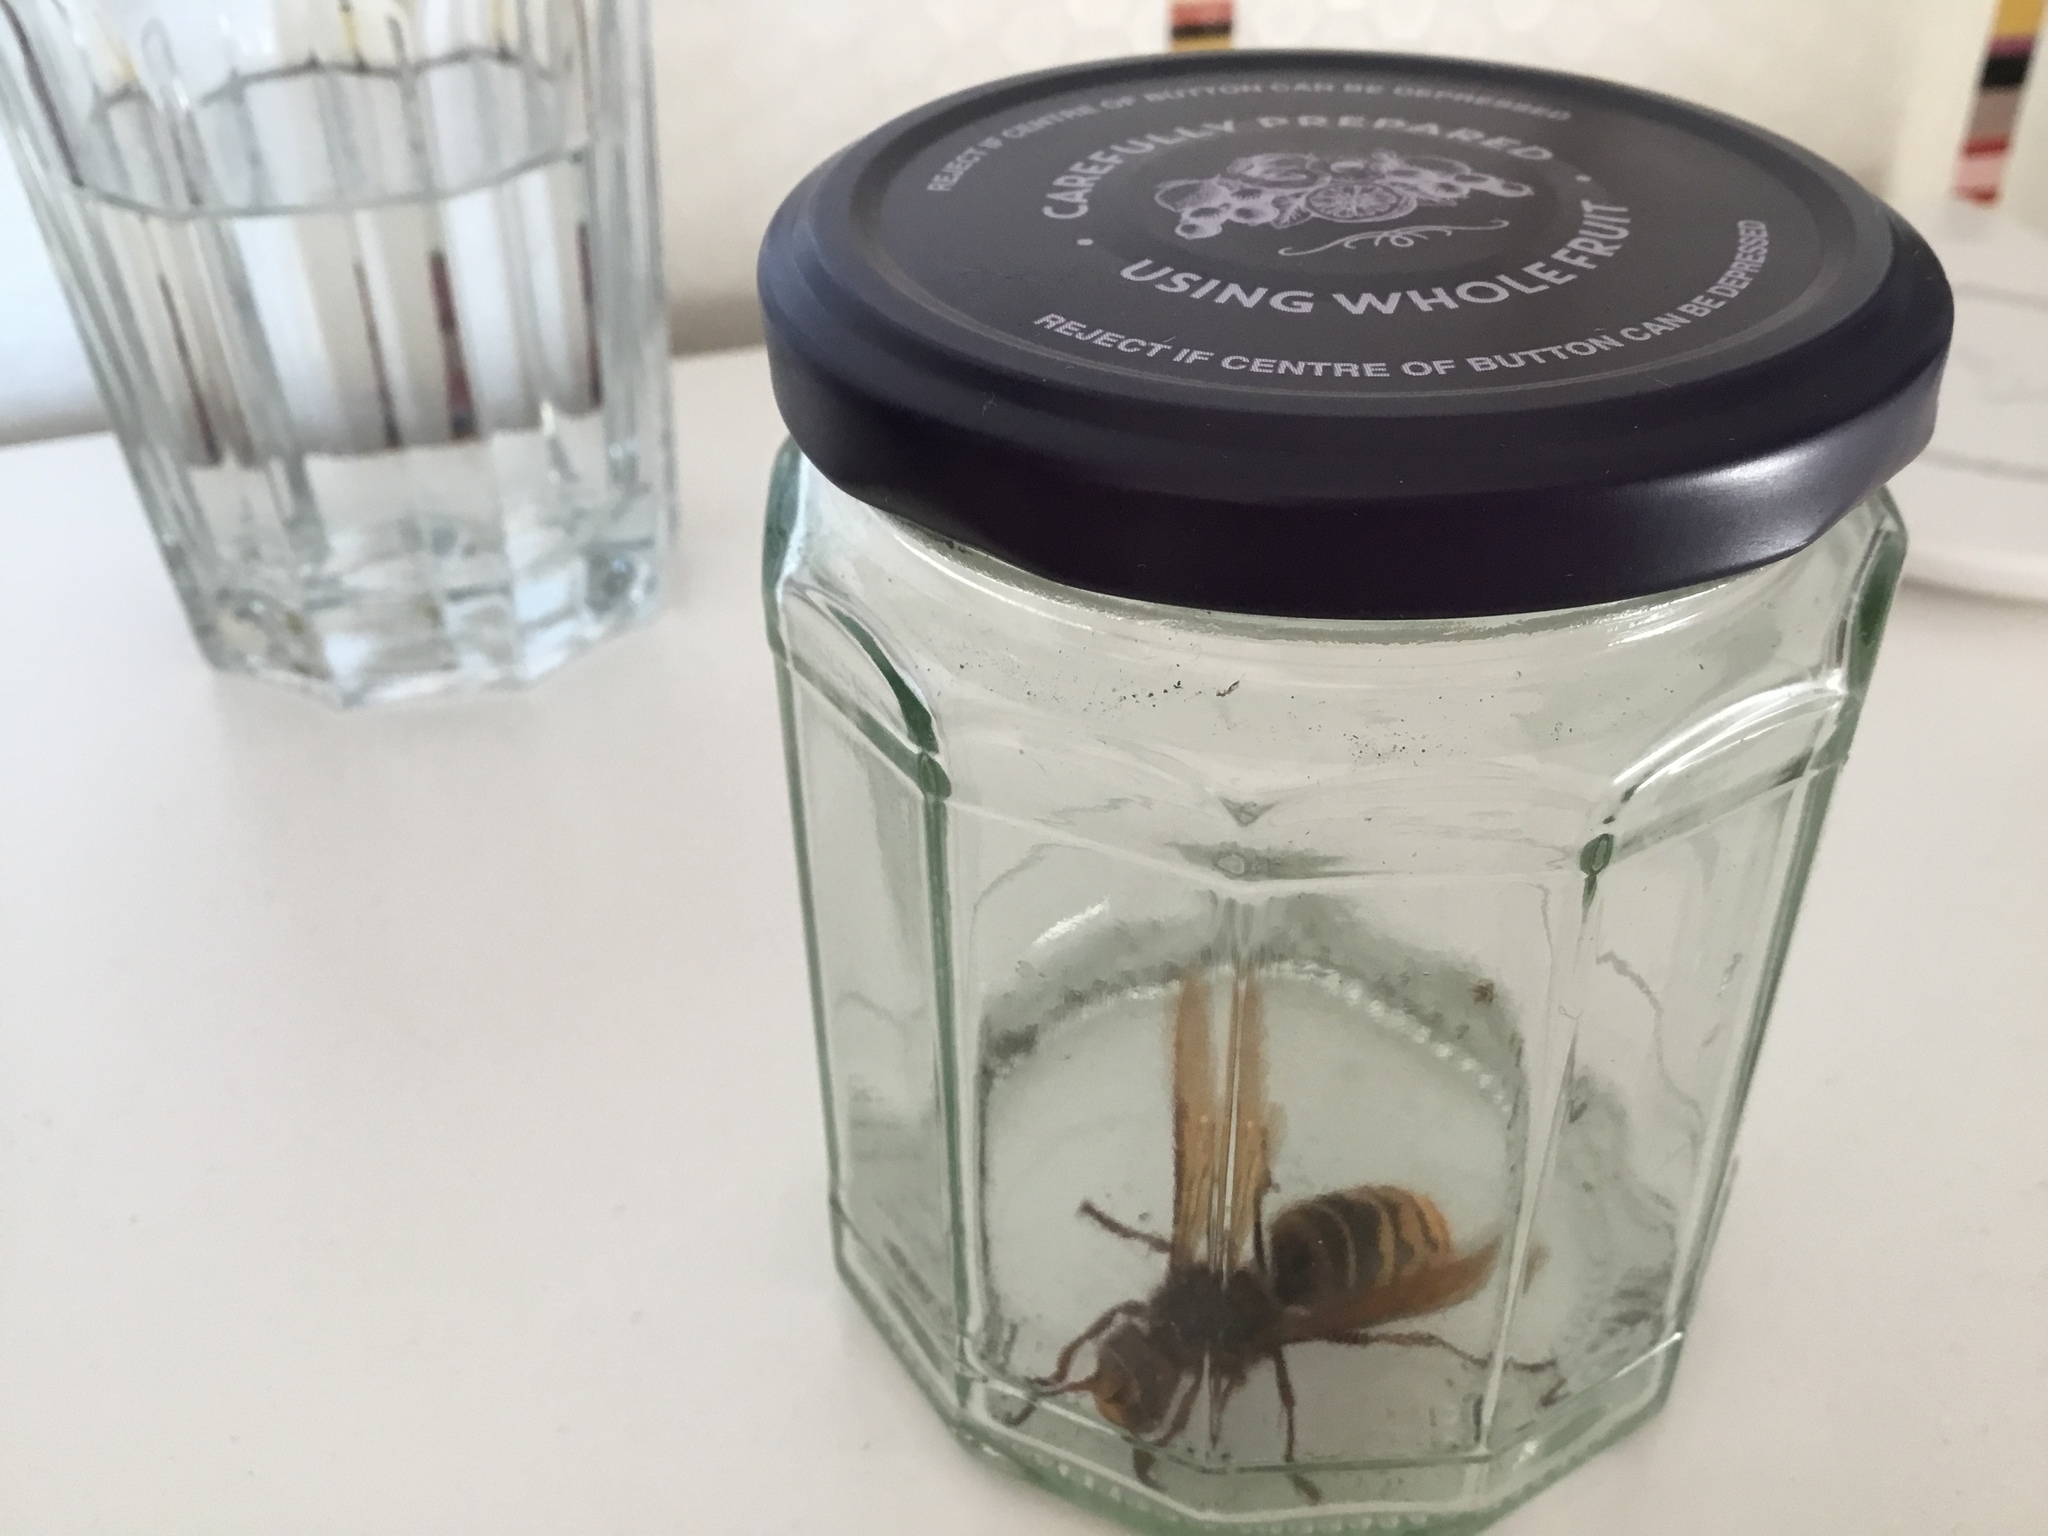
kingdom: Animalia
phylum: Arthropoda
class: Insecta
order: Hymenoptera
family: Vespidae
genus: Vespa
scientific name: Vespa crabro
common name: Hornet
